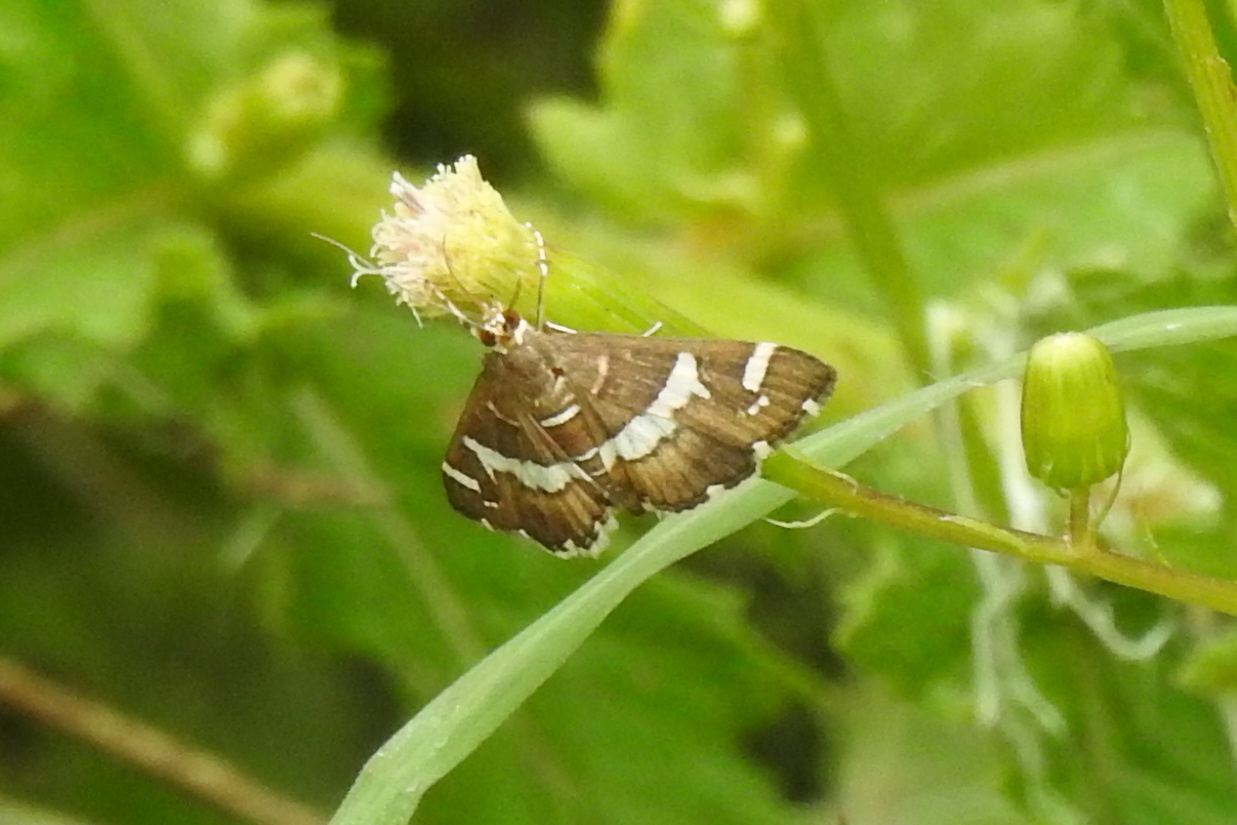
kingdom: Animalia
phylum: Arthropoda
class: Insecta
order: Lepidoptera
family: Crambidae
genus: Spoladea
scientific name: Spoladea recurvalis
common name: Beet webworm moth
